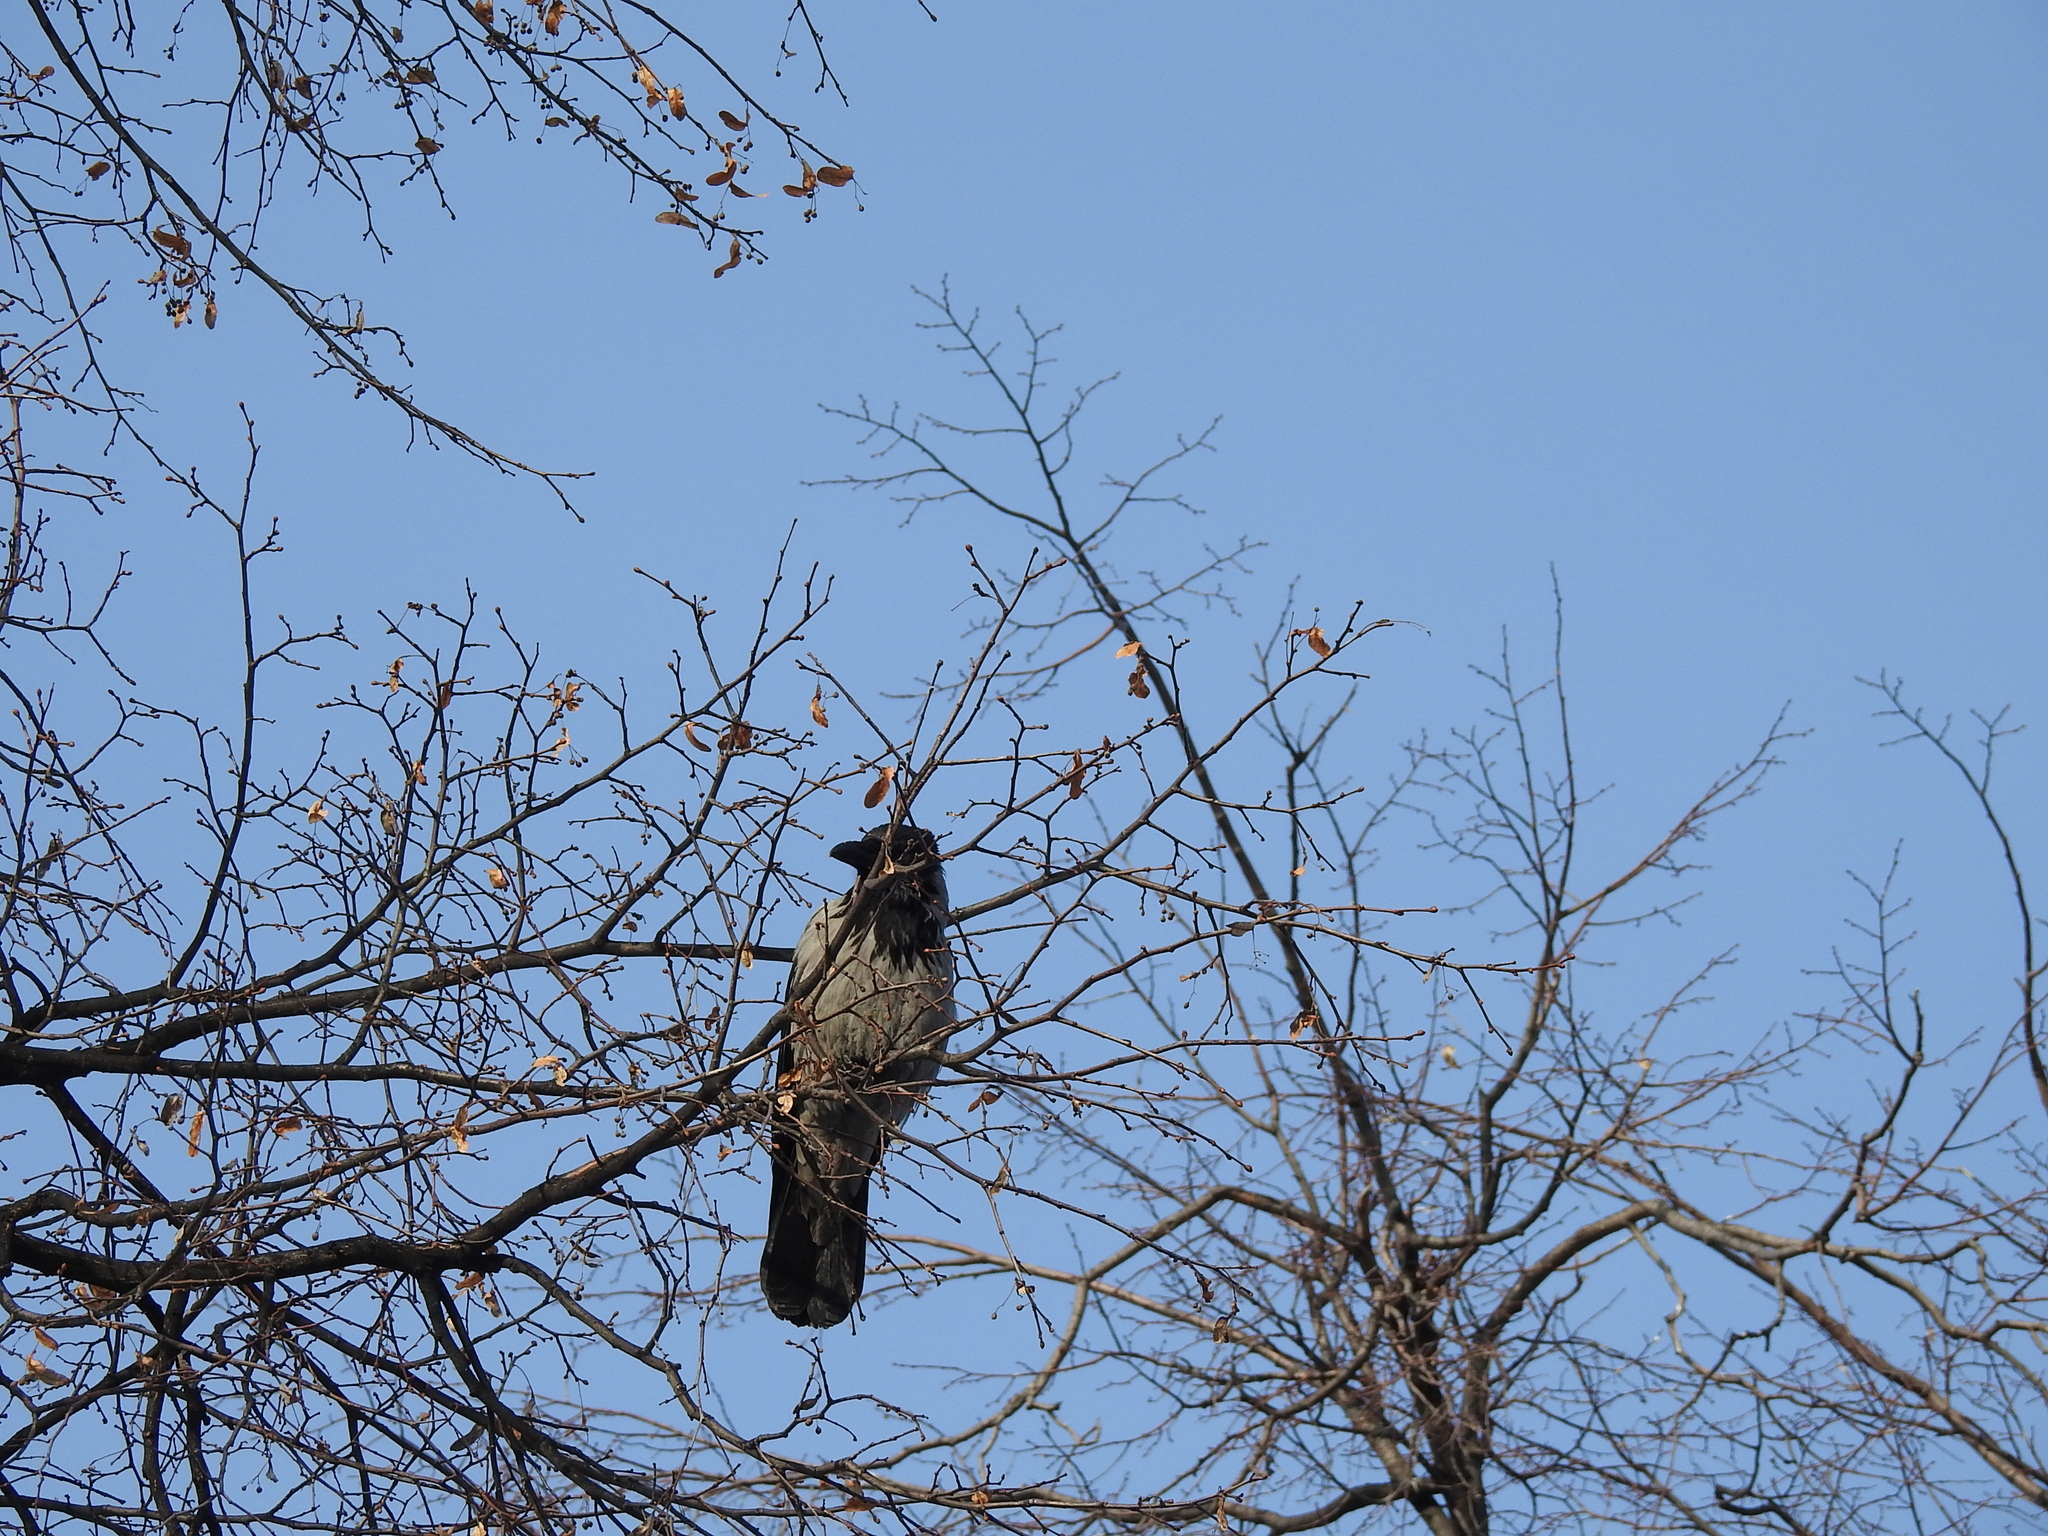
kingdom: Animalia
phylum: Chordata
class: Aves
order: Passeriformes
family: Corvidae
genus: Corvus
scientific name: Corvus cornix
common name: Hooded crow
